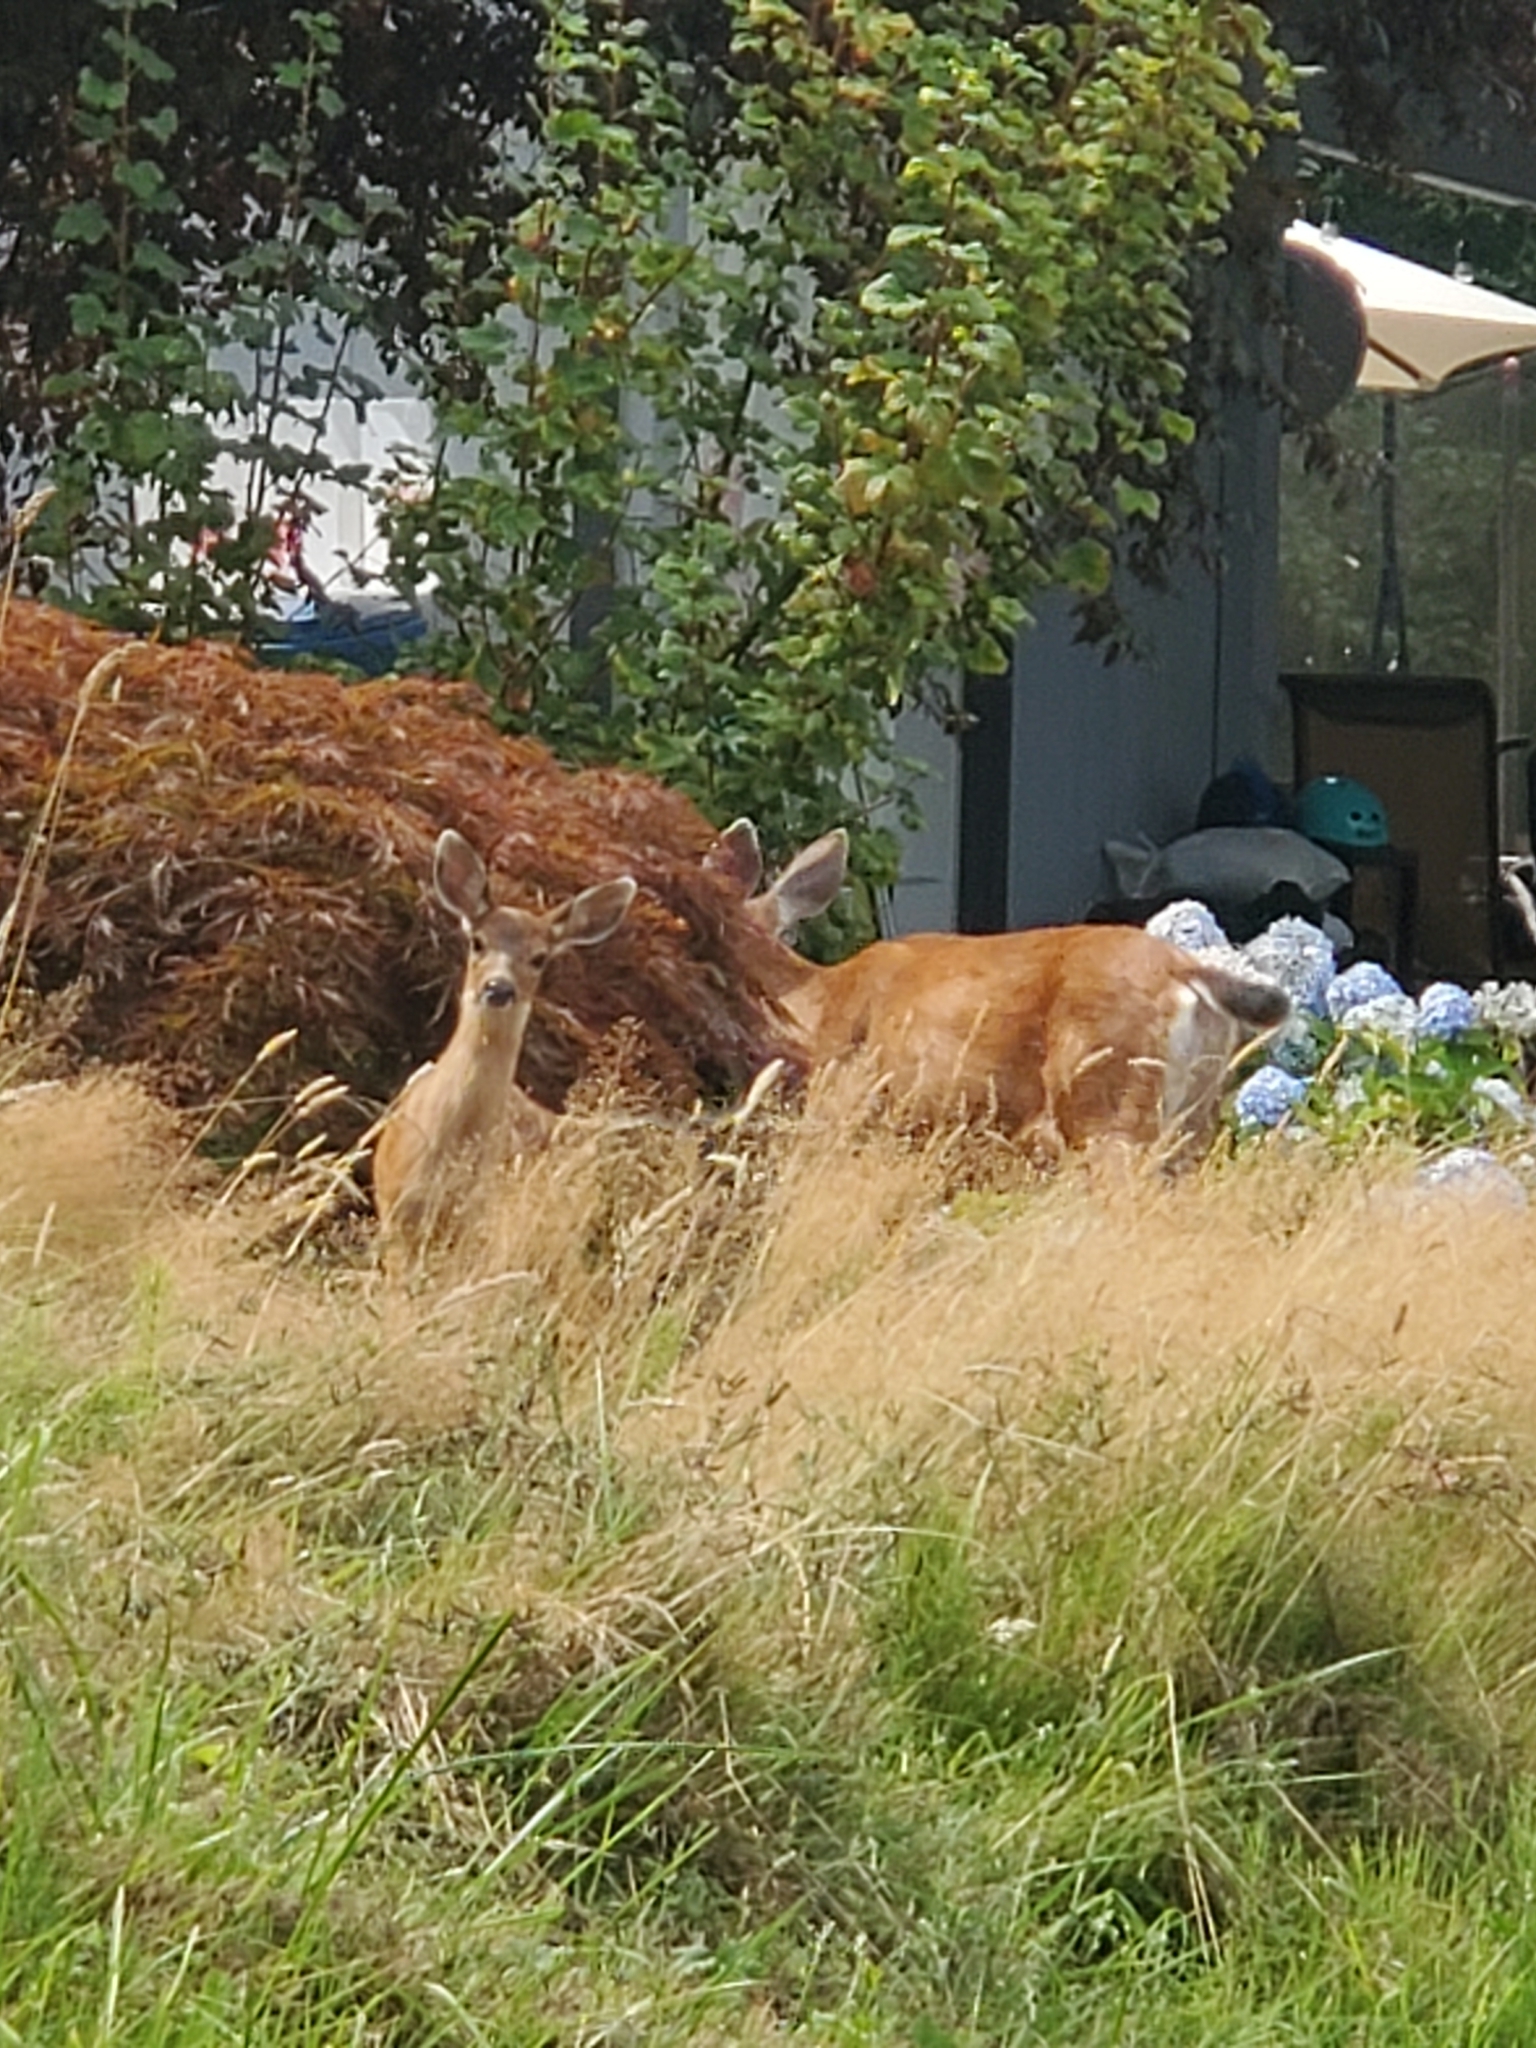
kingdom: Animalia
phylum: Chordata
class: Mammalia
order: Artiodactyla
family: Cervidae
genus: Odocoileus
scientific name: Odocoileus hemionus
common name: Mule deer
